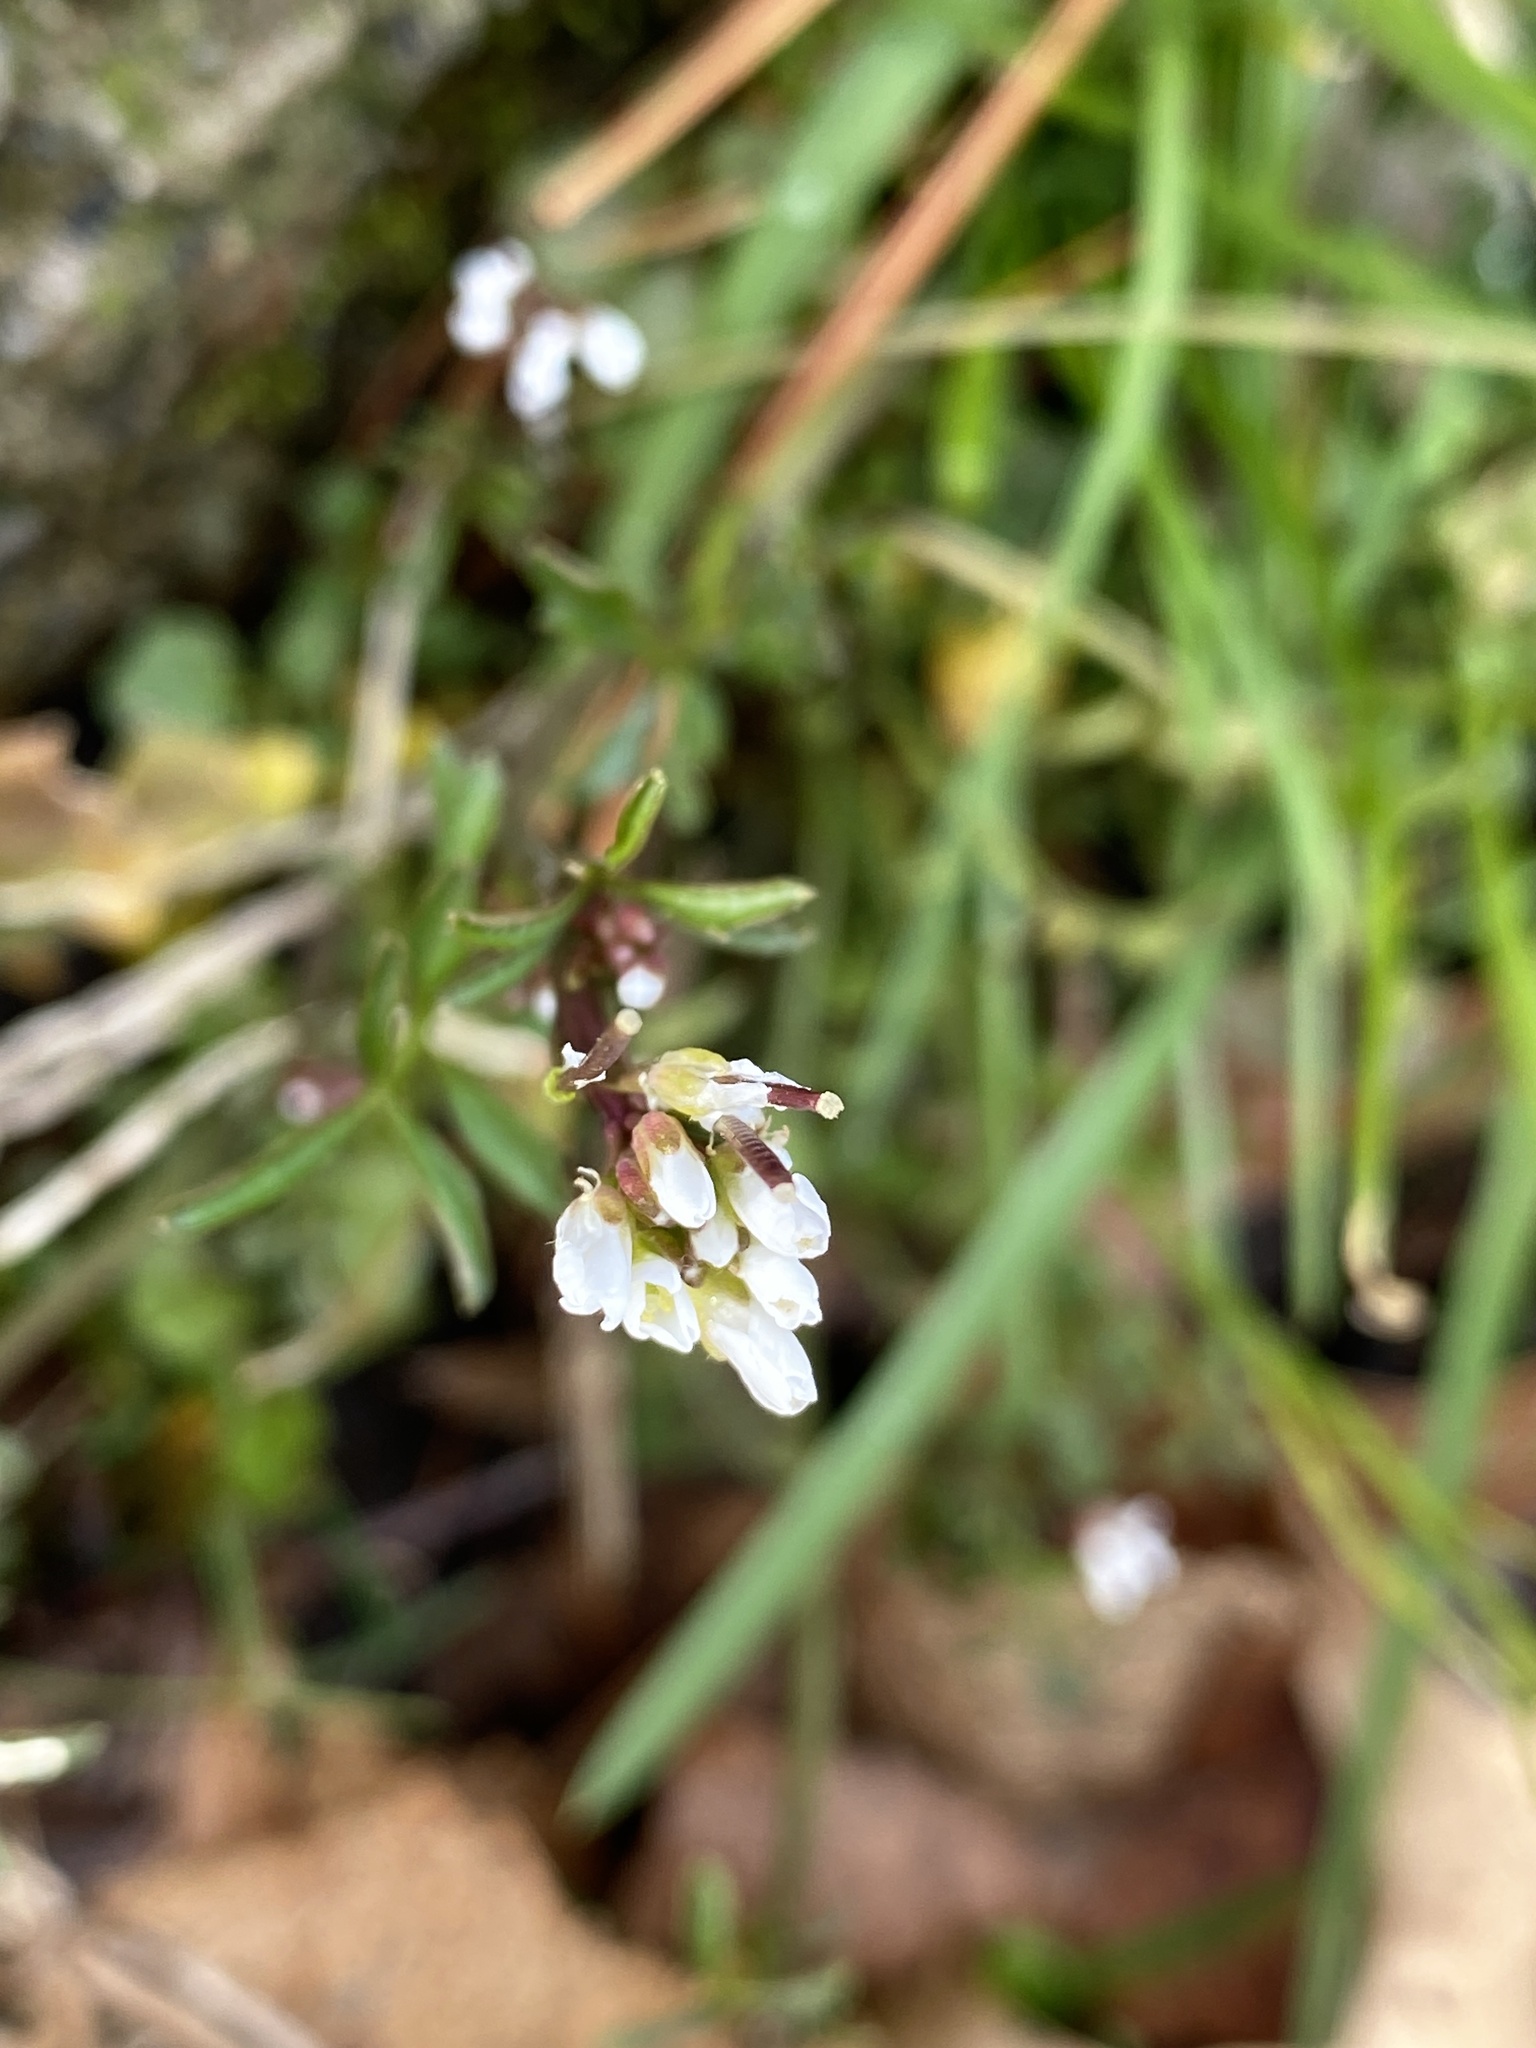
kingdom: Plantae
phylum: Tracheophyta
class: Magnoliopsida
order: Brassicales
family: Brassicaceae
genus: Cardamine
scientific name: Cardamine hirsuta
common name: Hairy bittercress
